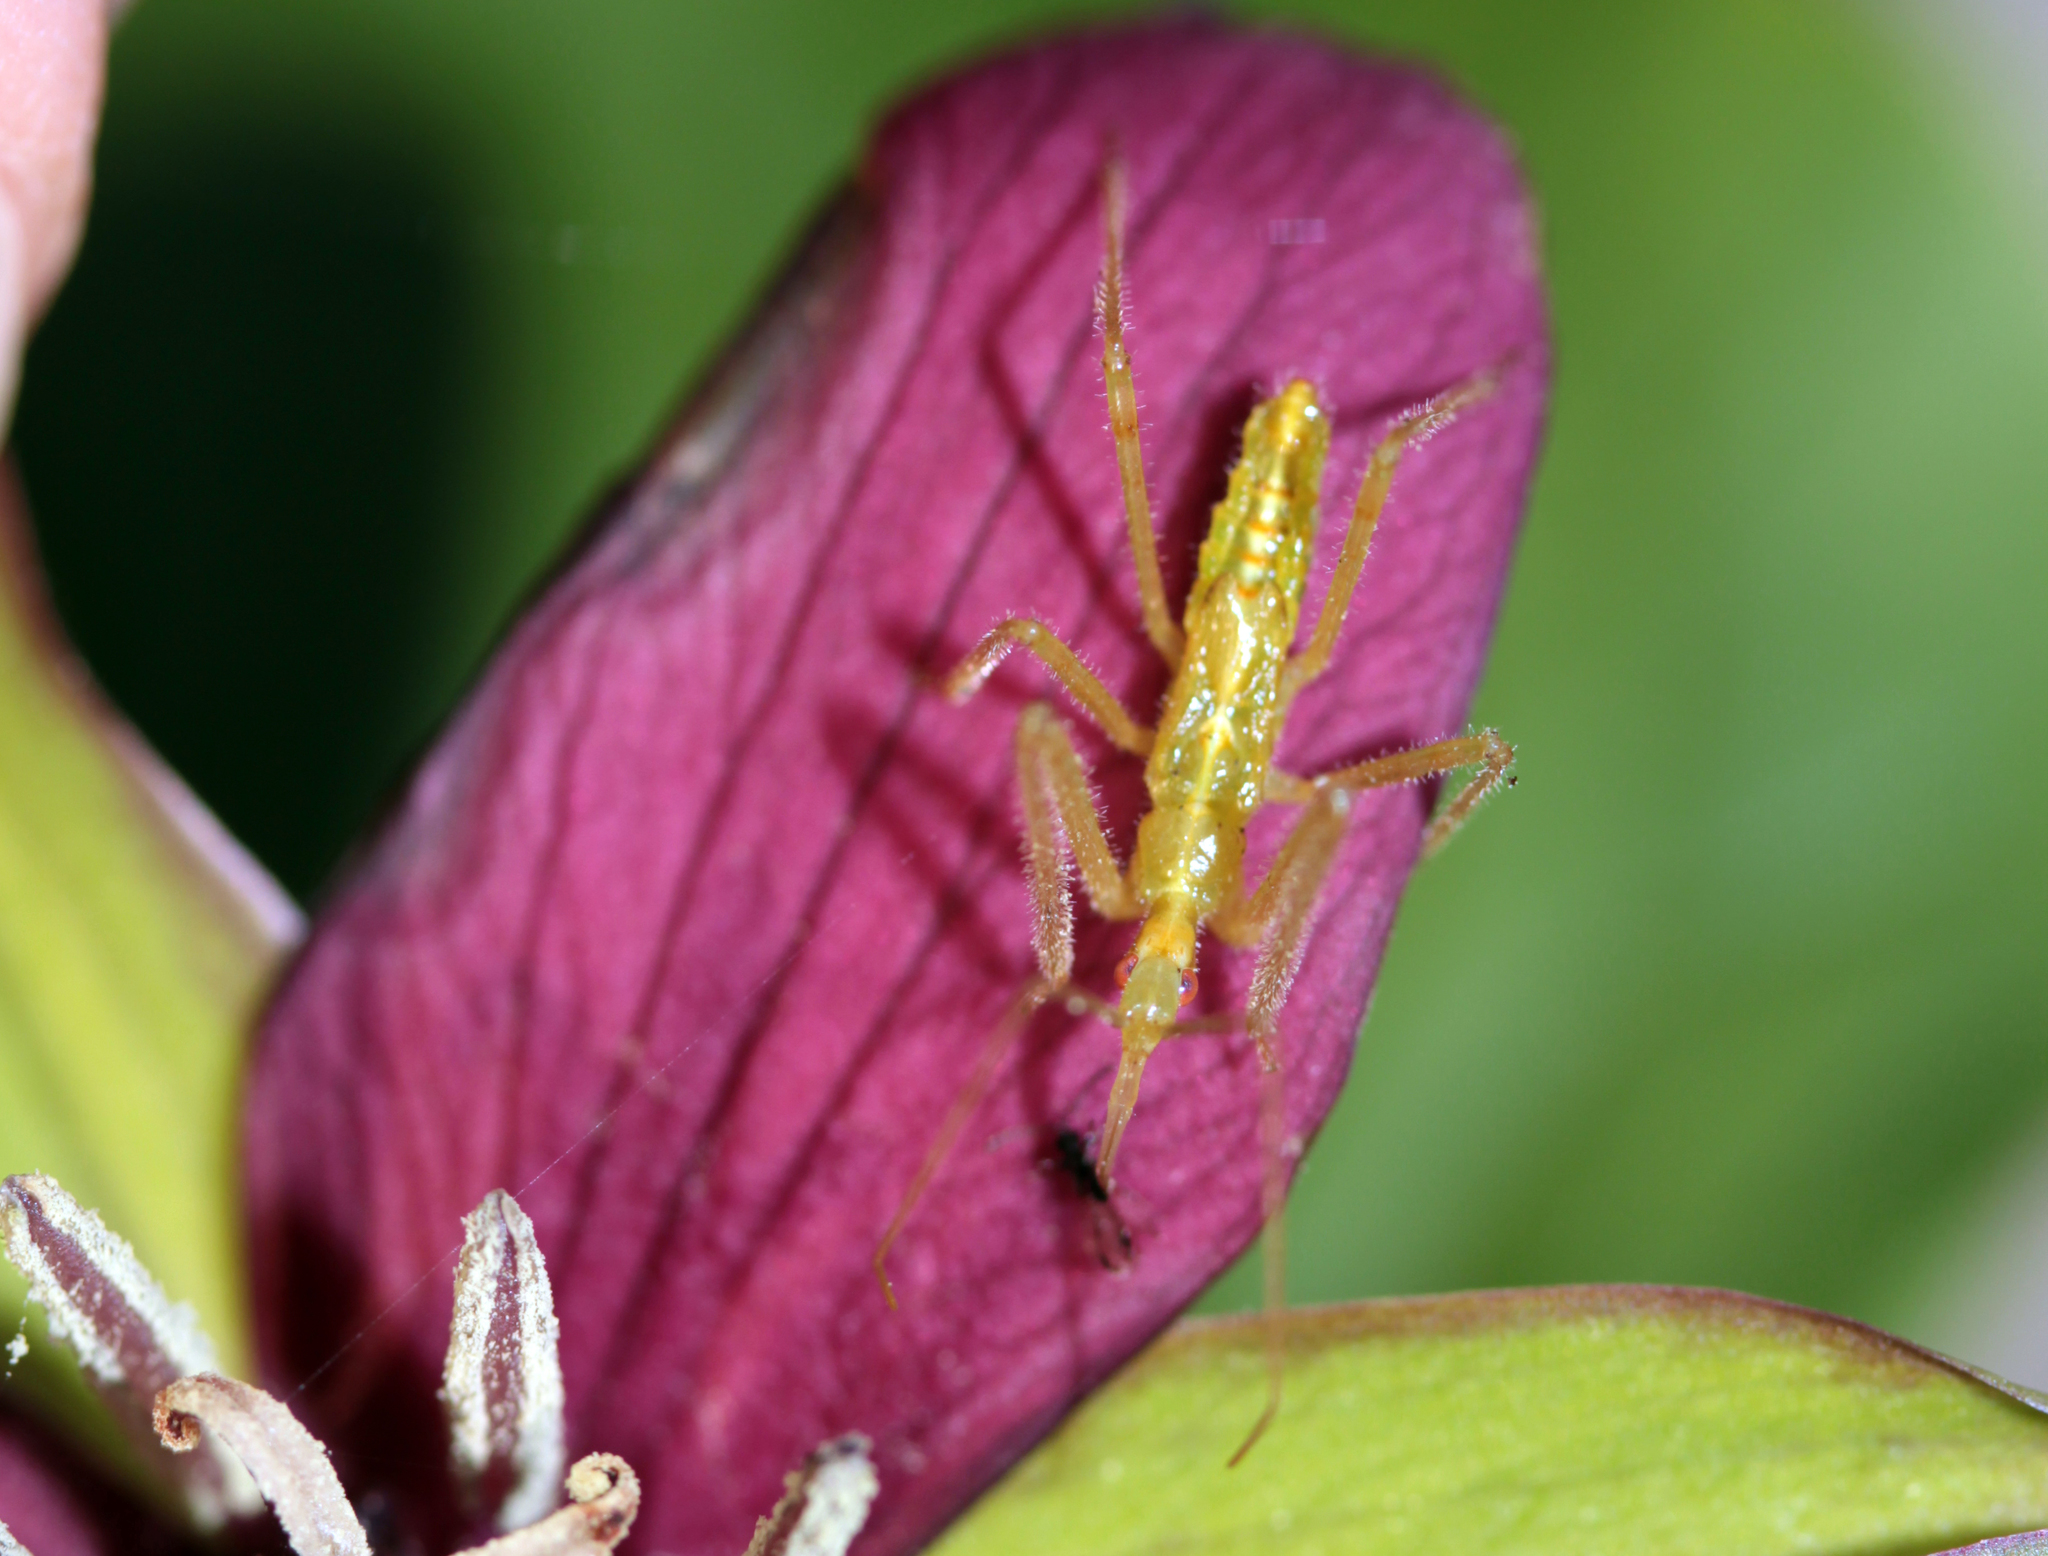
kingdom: Animalia
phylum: Arthropoda
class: Insecta
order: Hemiptera
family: Reduviidae
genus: Zelus
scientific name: Zelus luridus
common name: Pale green assassin bug
